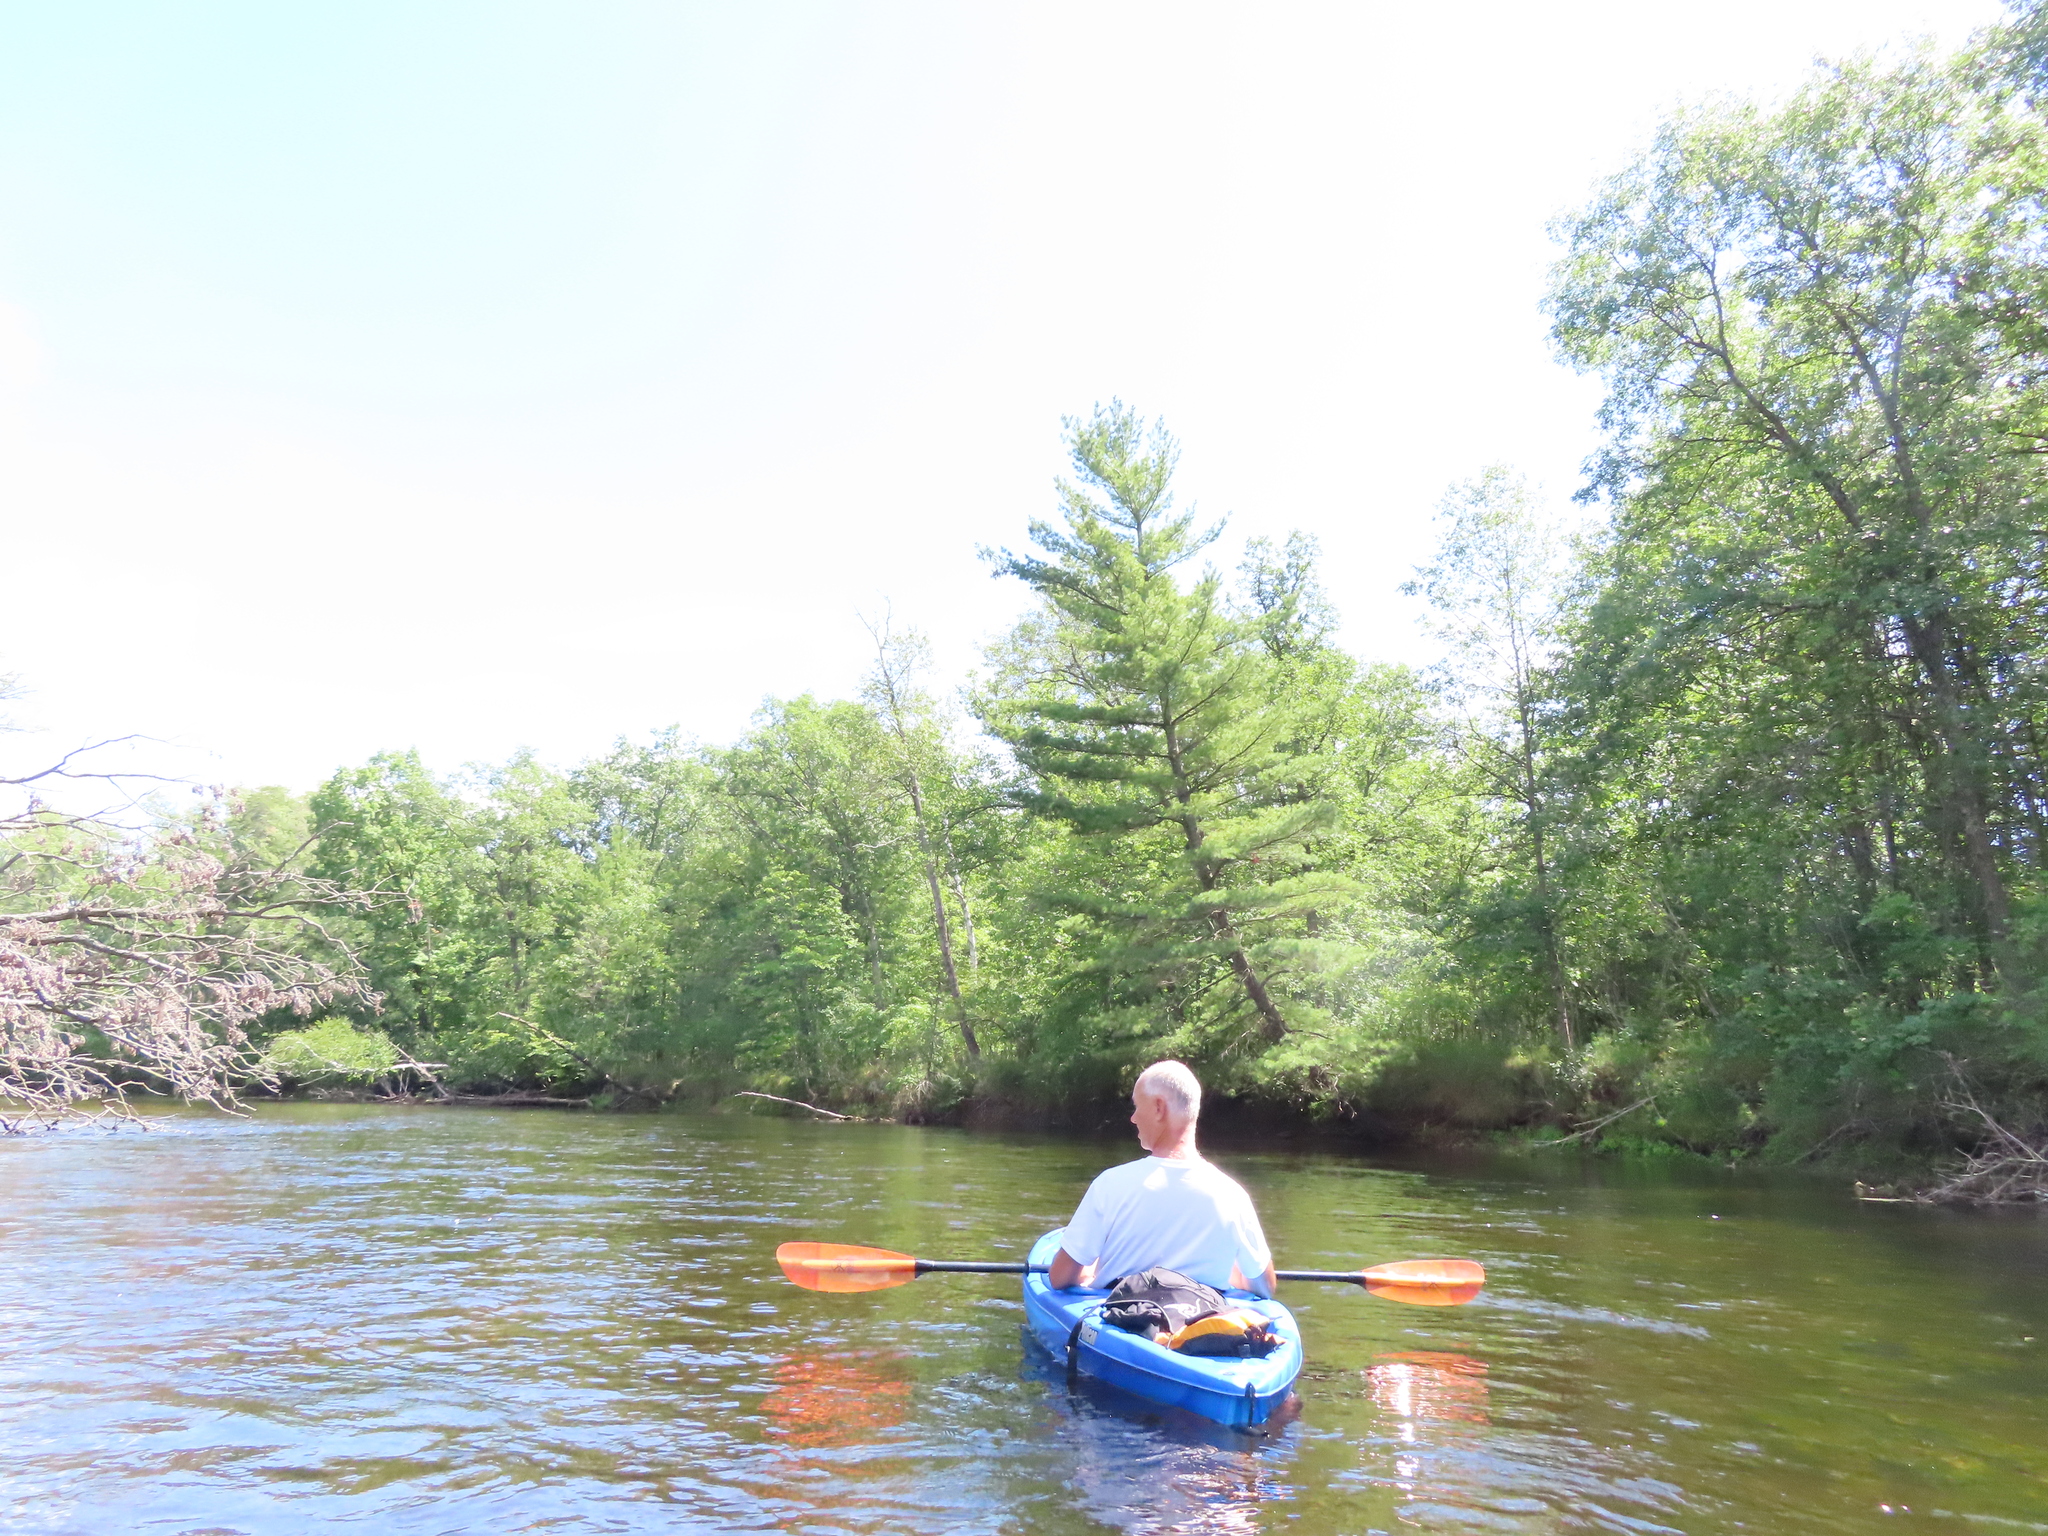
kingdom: Plantae
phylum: Tracheophyta
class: Pinopsida
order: Pinales
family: Pinaceae
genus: Pinus
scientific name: Pinus strobus
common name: Weymouth pine
